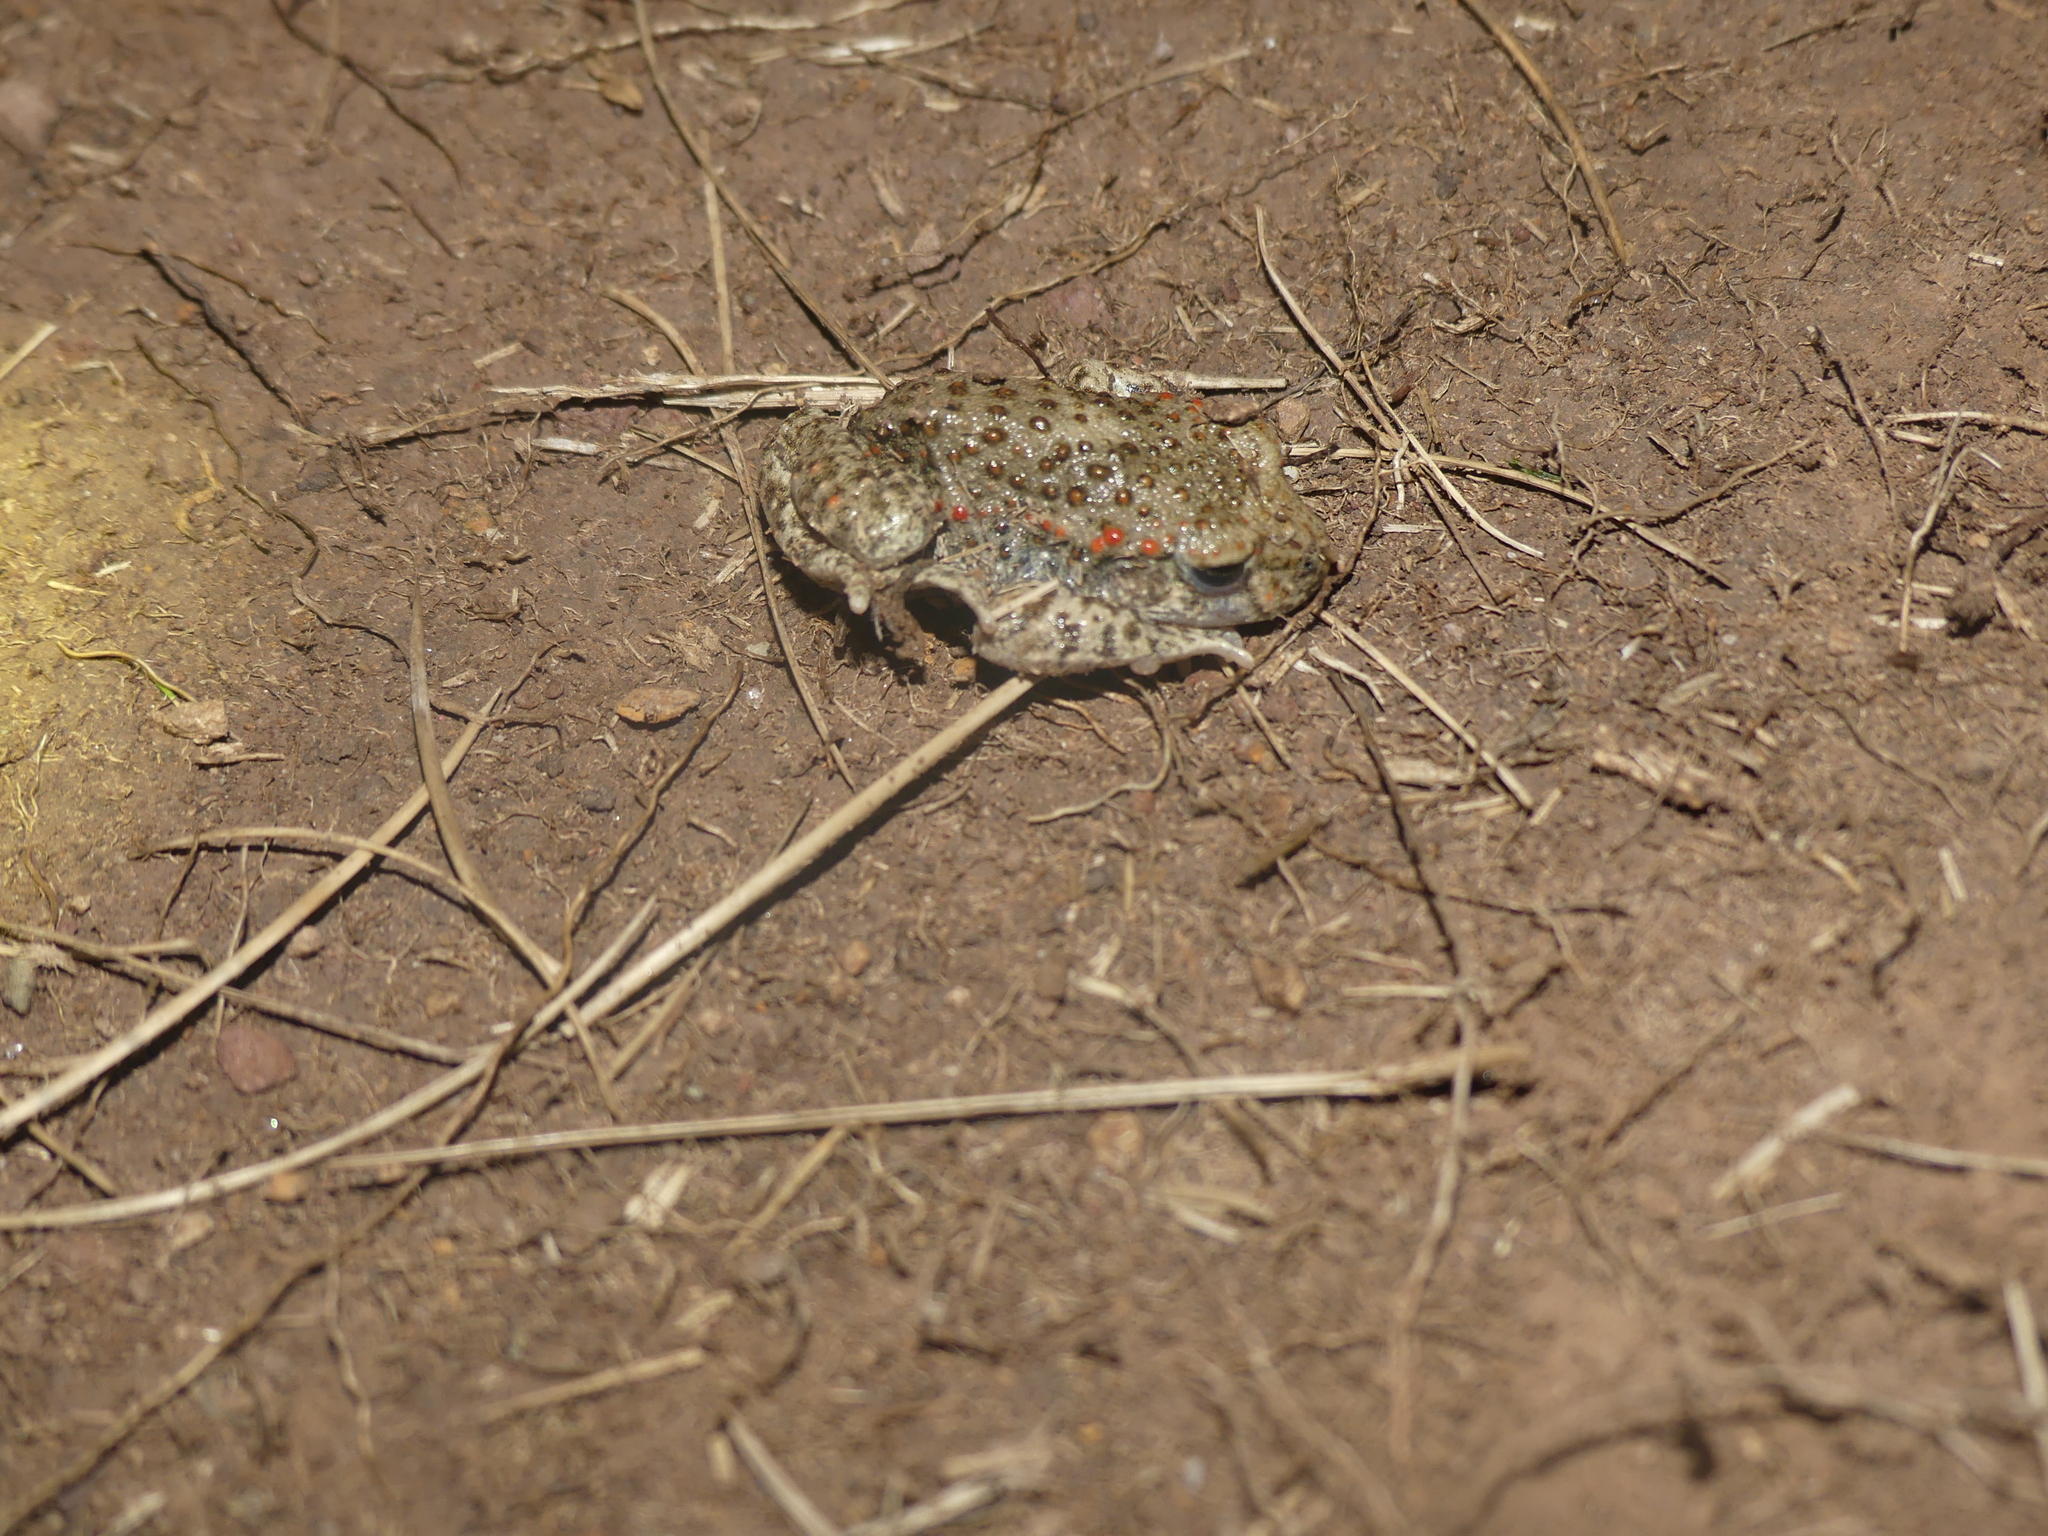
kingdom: Animalia
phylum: Chordata
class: Amphibia
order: Anura
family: Alytidae
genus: Alytes
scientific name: Alytes obstetricans
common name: Midwife toad
